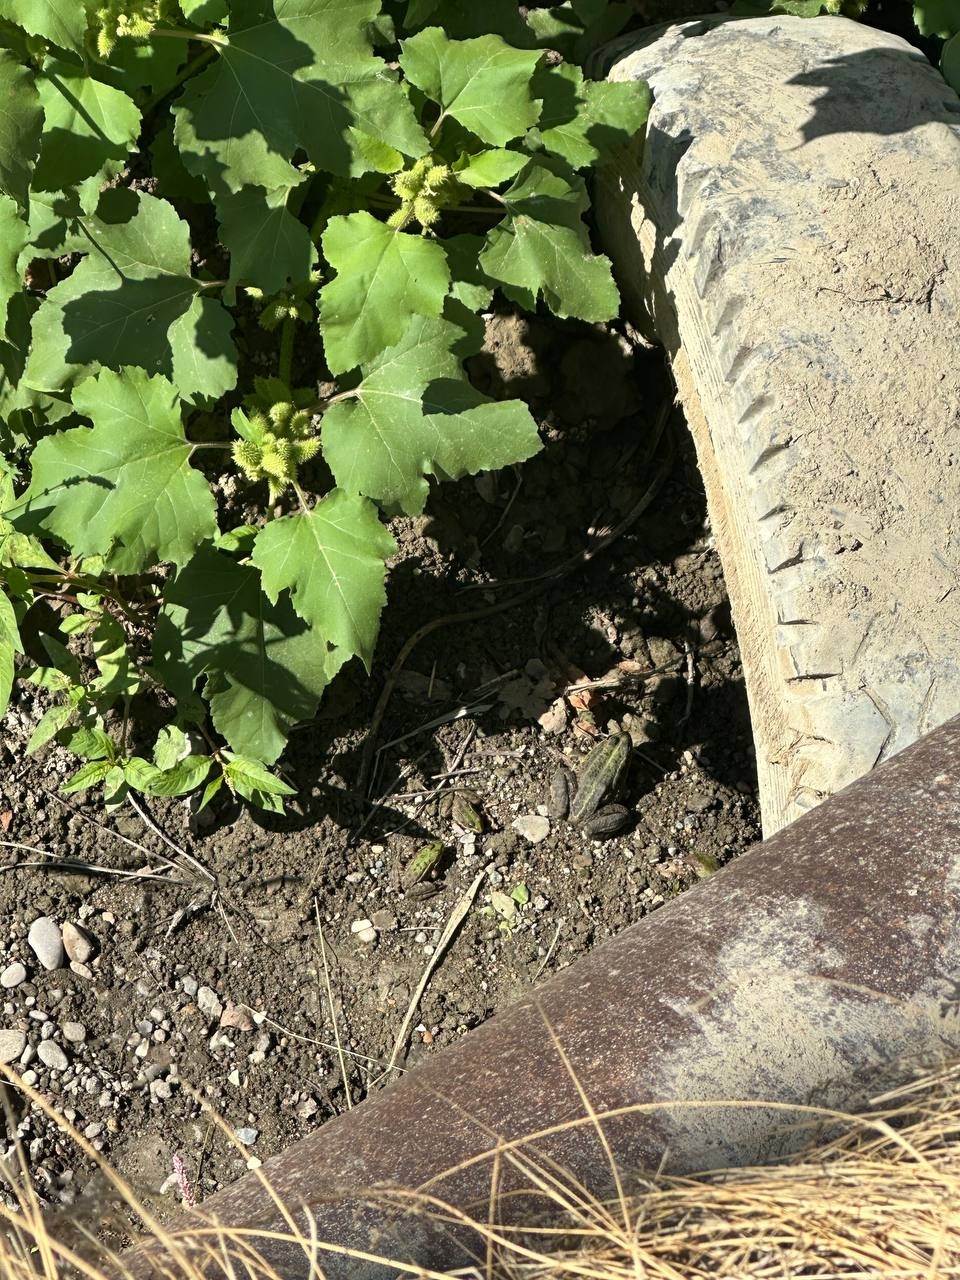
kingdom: Animalia
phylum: Chordata
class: Amphibia
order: Anura
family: Ranidae
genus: Pelophylax
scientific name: Pelophylax ridibundus
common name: Marsh frog
